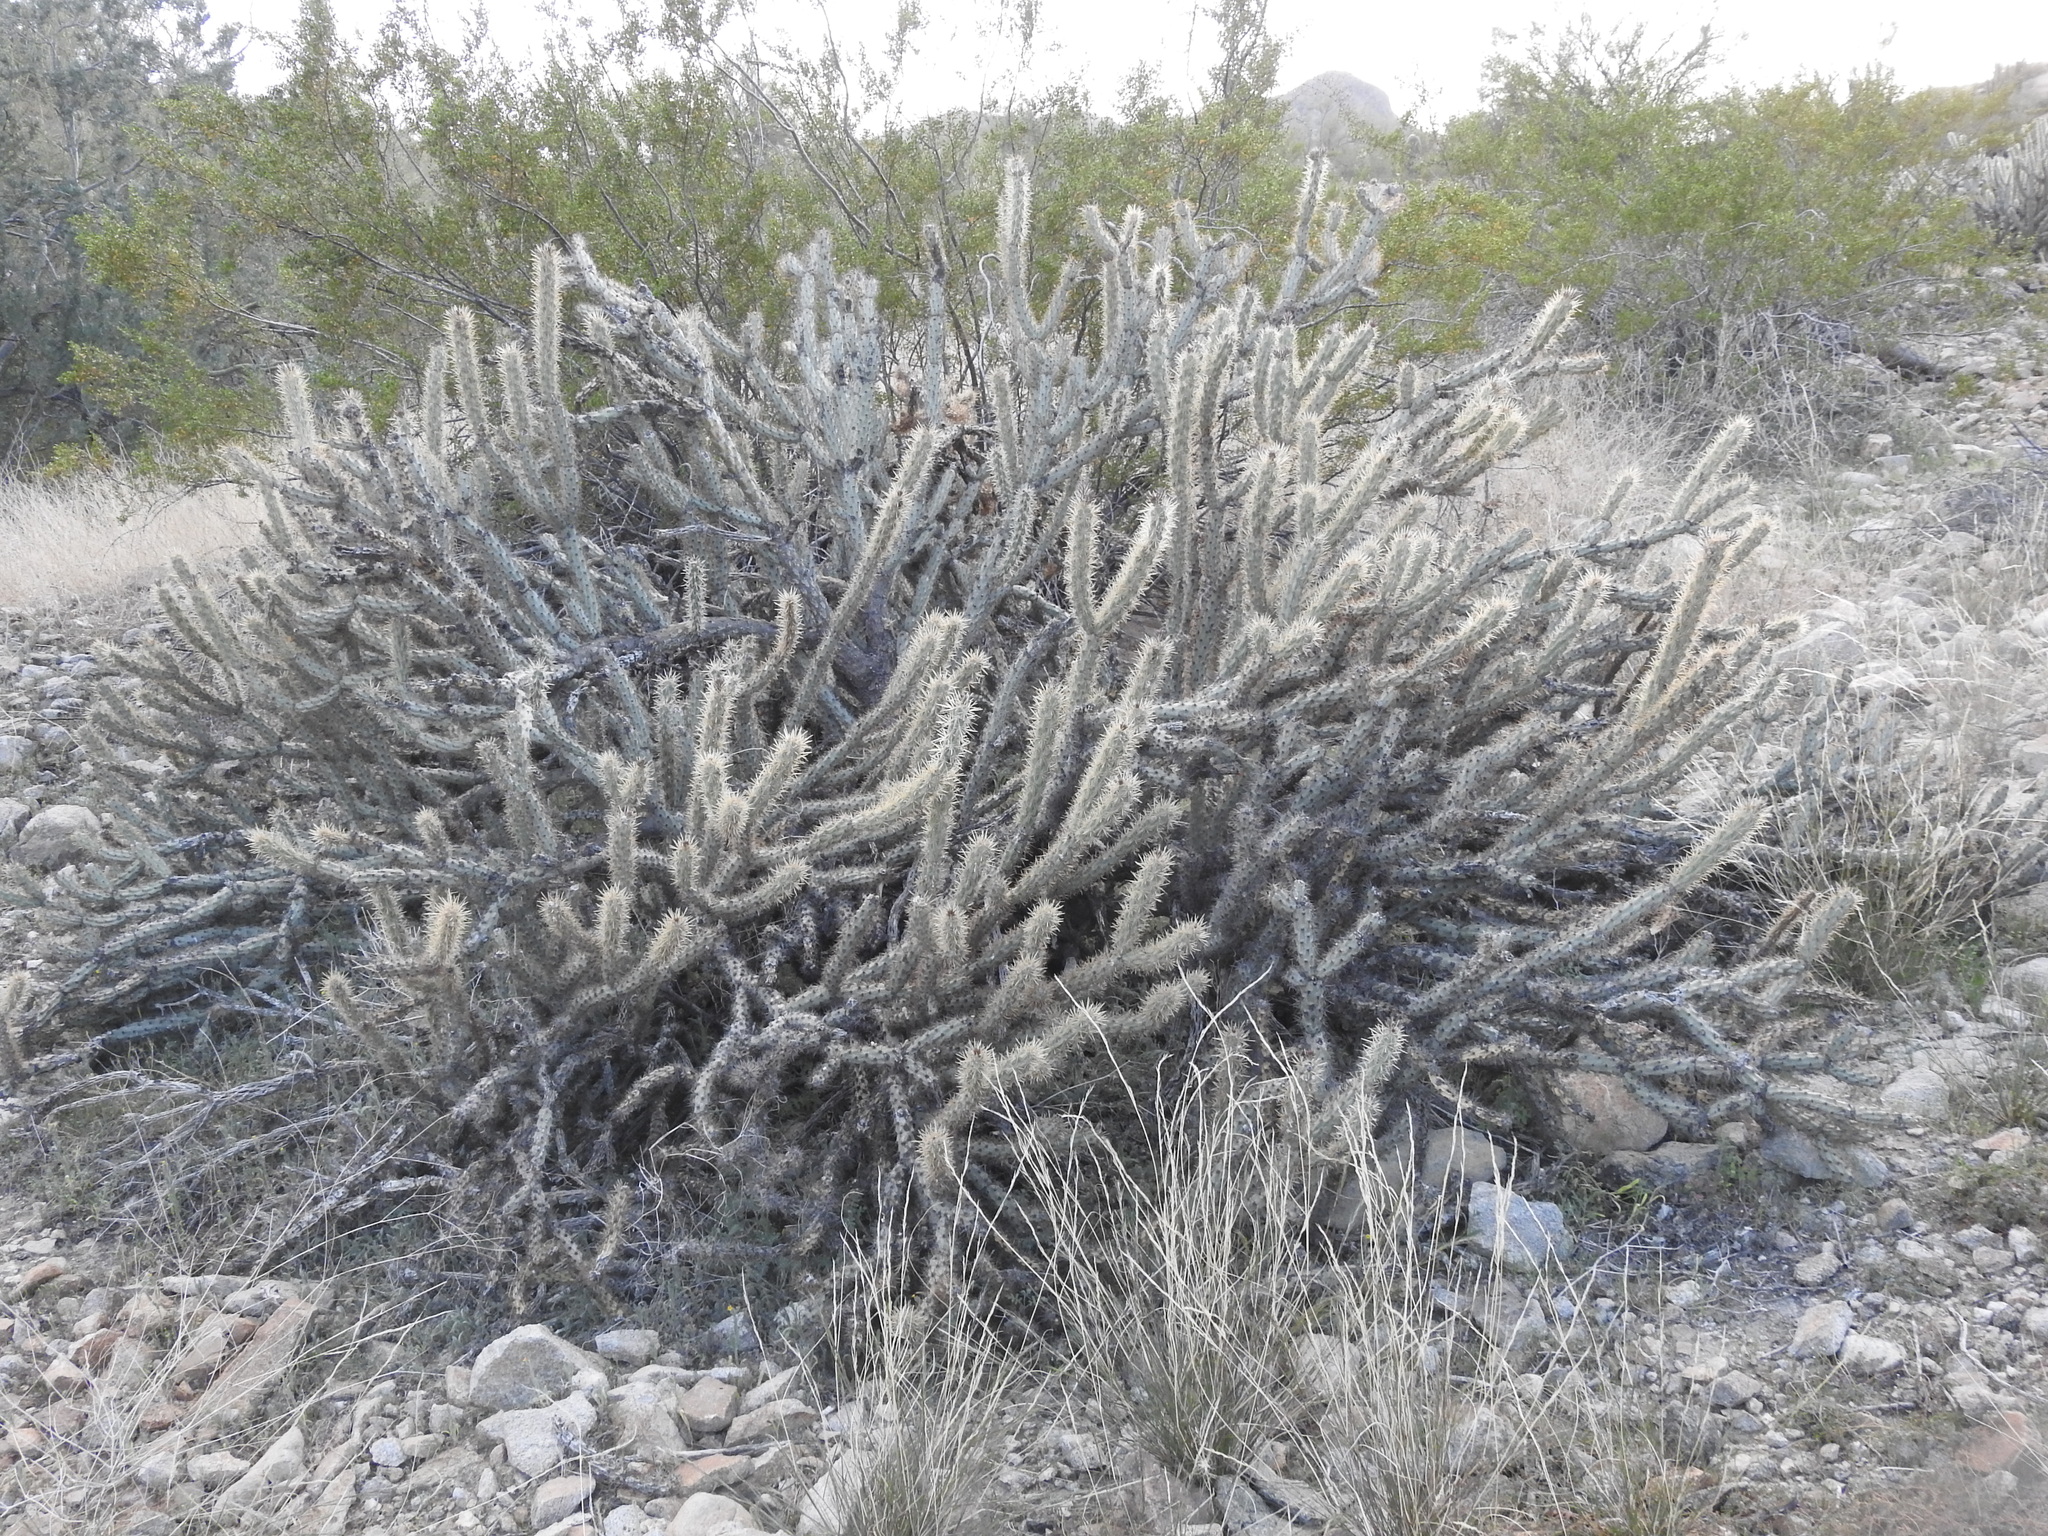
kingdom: Plantae
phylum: Tracheophyta
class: Magnoliopsida
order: Caryophyllales
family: Cactaceae
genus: Cylindropuntia
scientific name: Cylindropuntia acanthocarpa
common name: Buckhorn cholla
